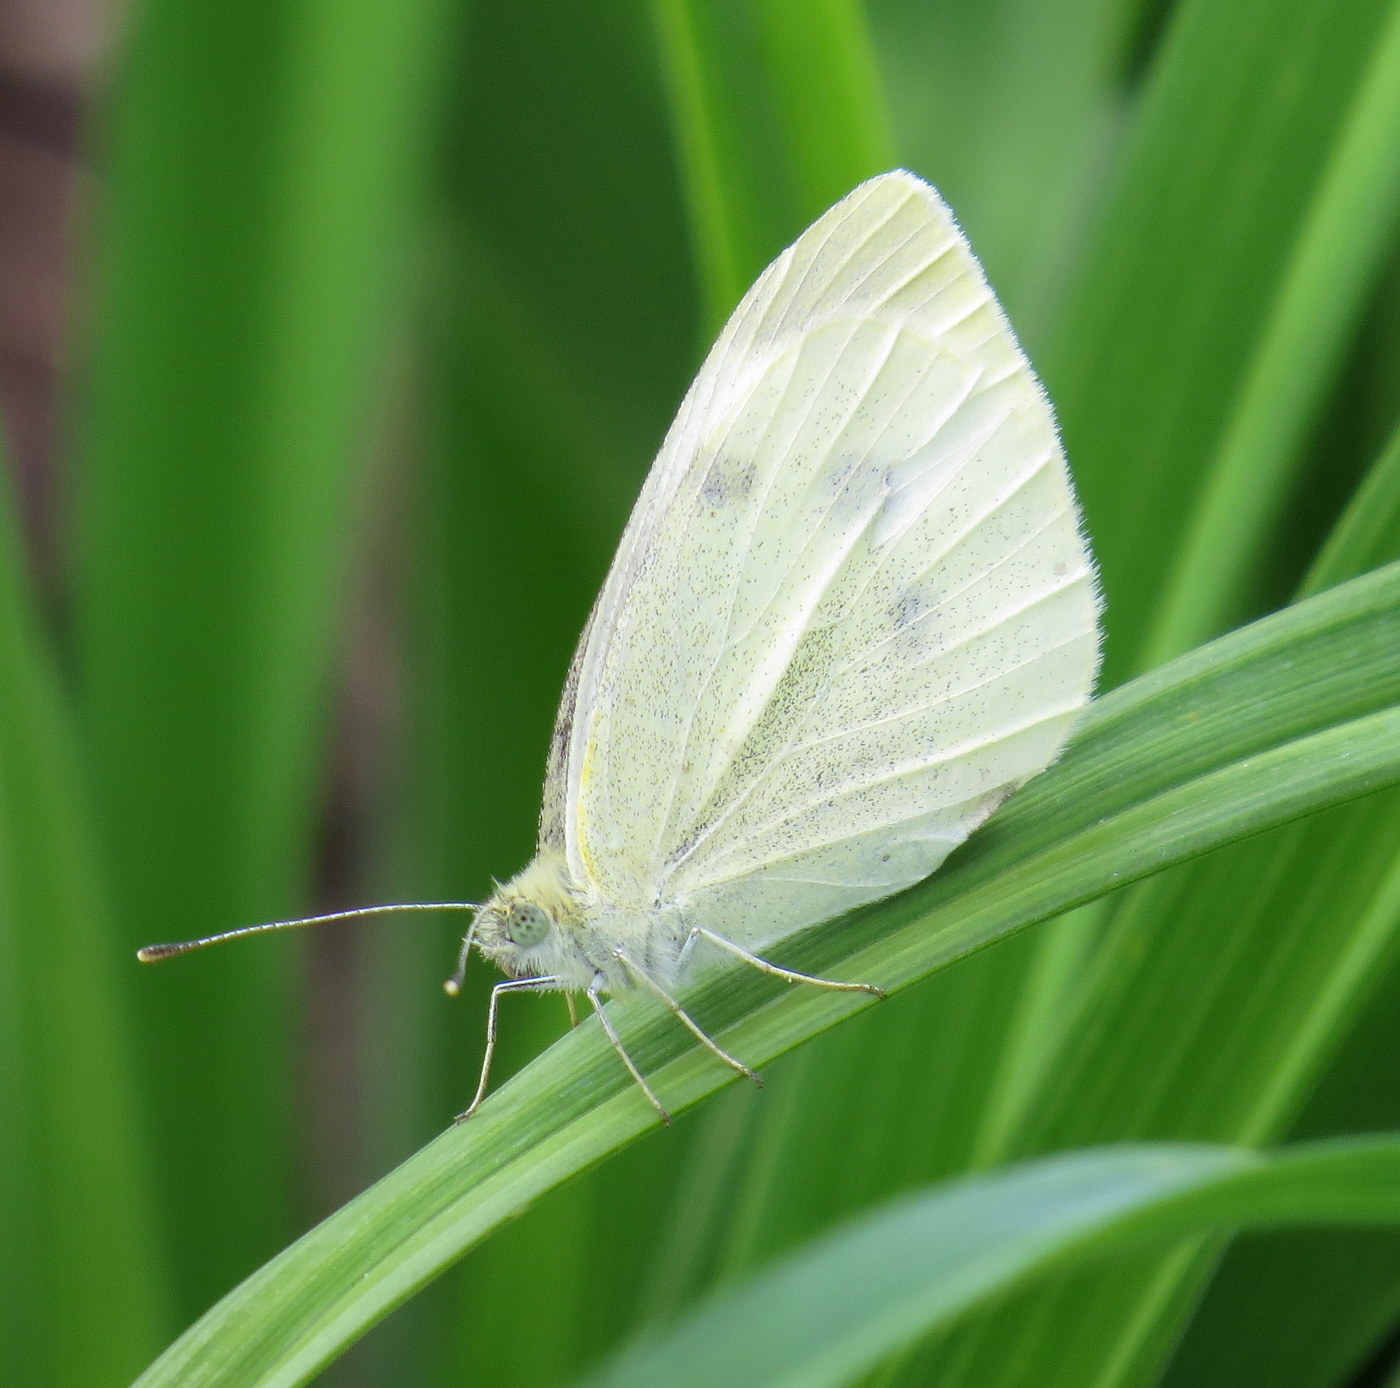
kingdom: Animalia
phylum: Arthropoda
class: Insecta
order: Lepidoptera
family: Pieridae
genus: Pieris
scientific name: Pieris rapae
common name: Small white
